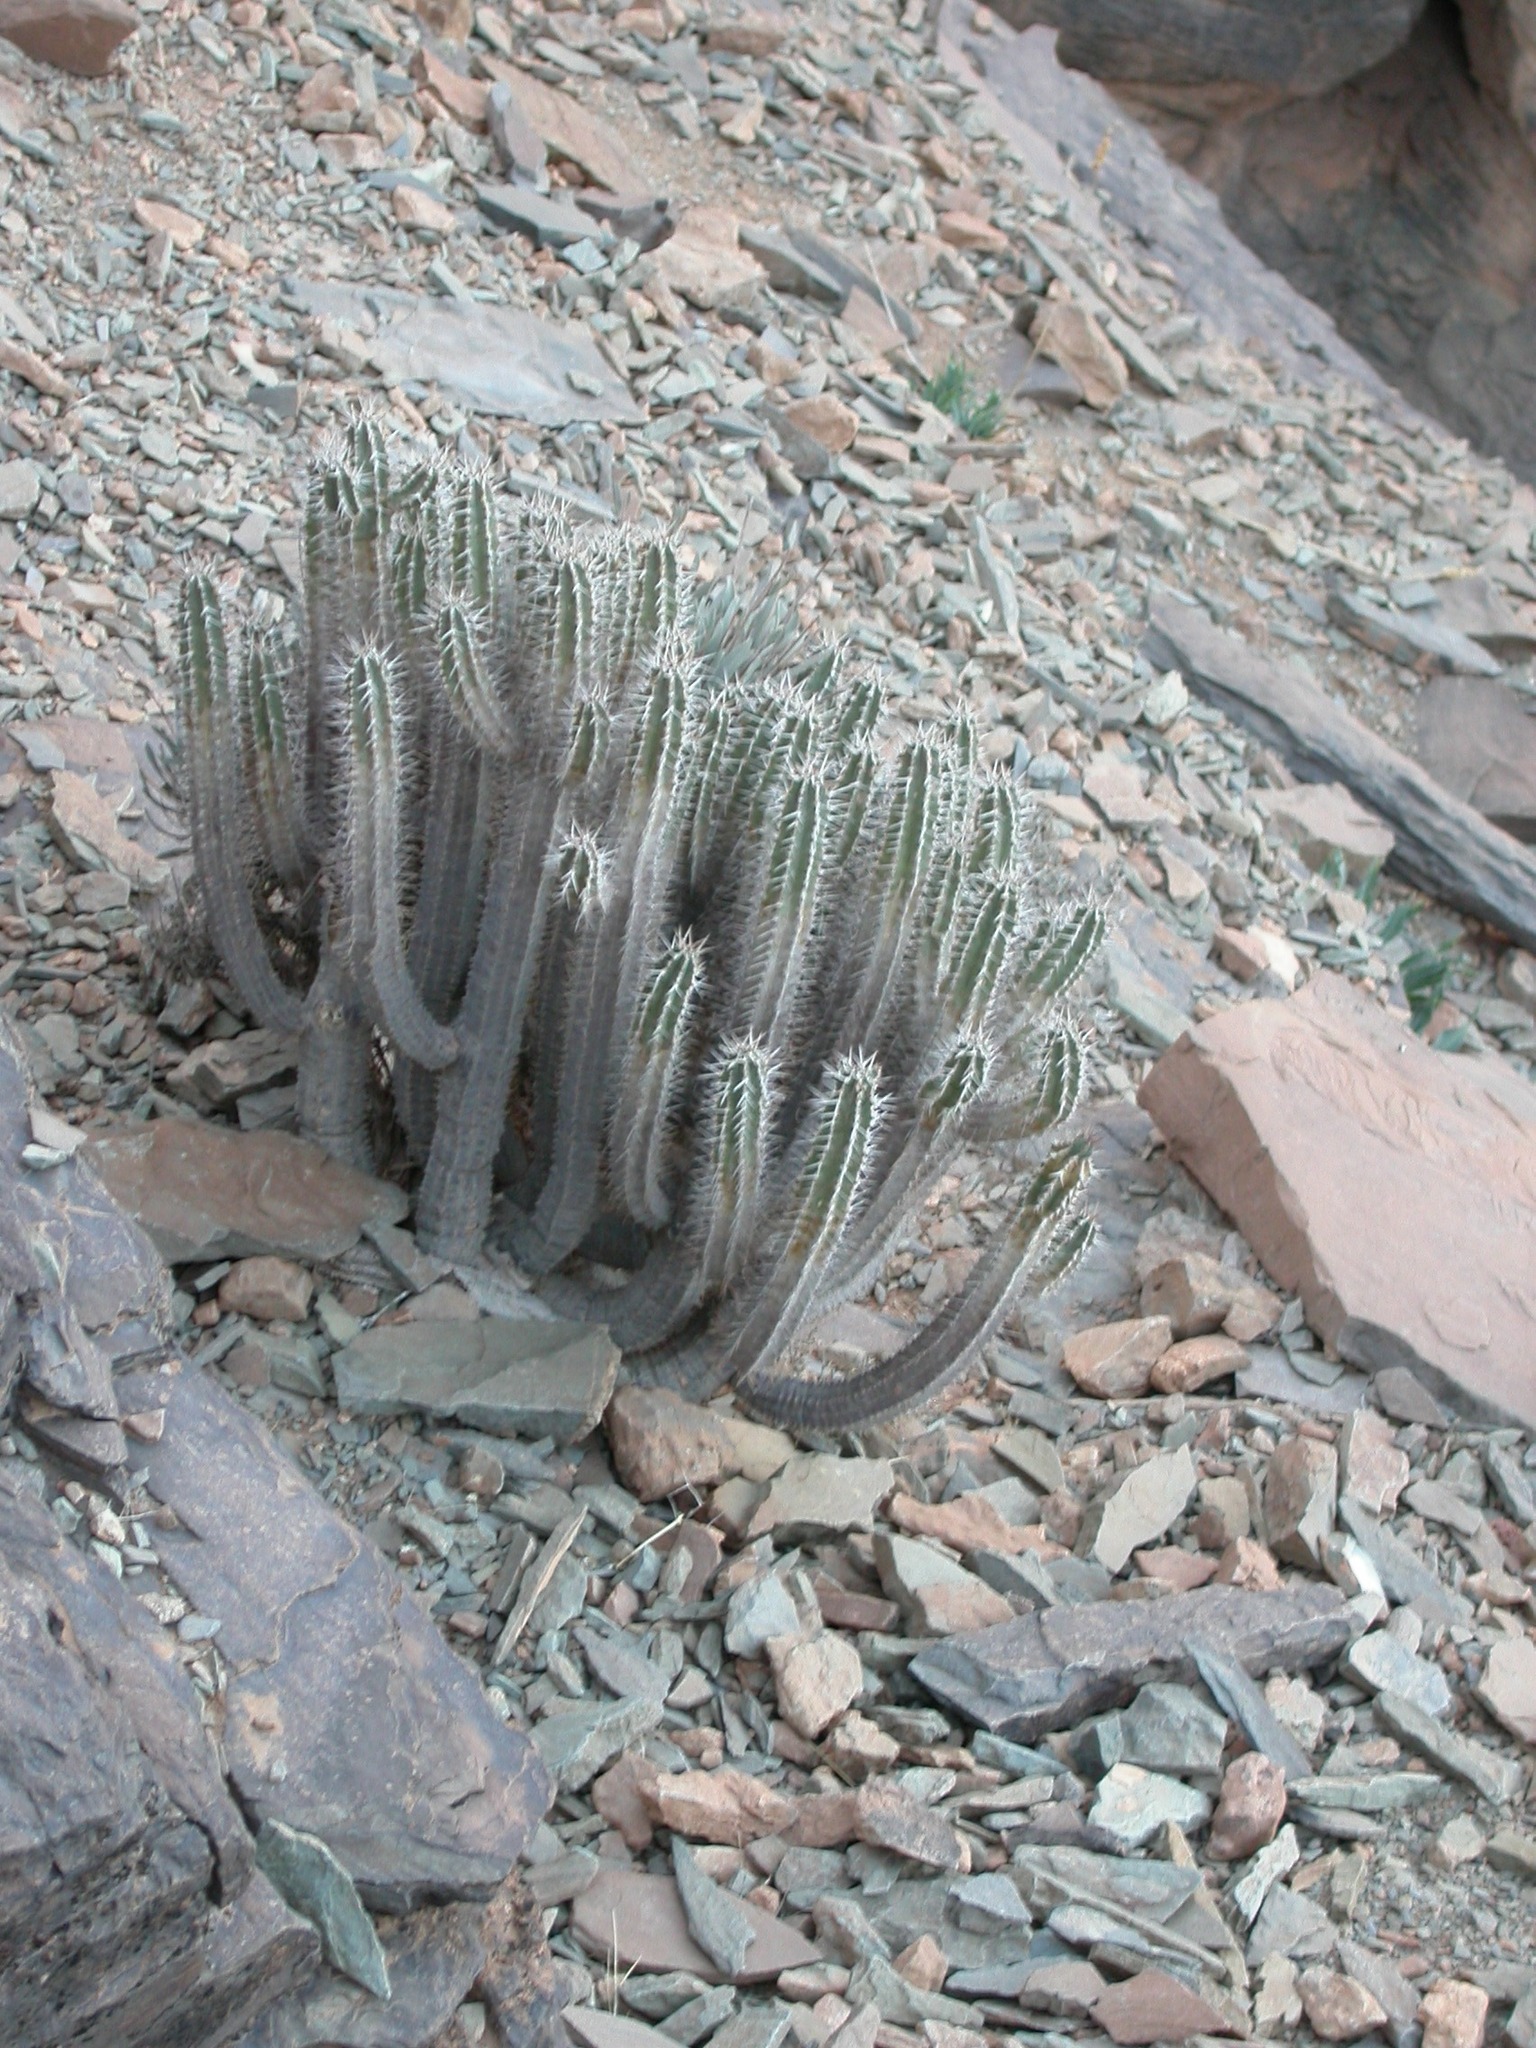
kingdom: Plantae
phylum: Tracheophyta
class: Magnoliopsida
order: Malpighiales
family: Euphorbiaceae
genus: Euphorbia
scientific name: Euphorbia officinarum
